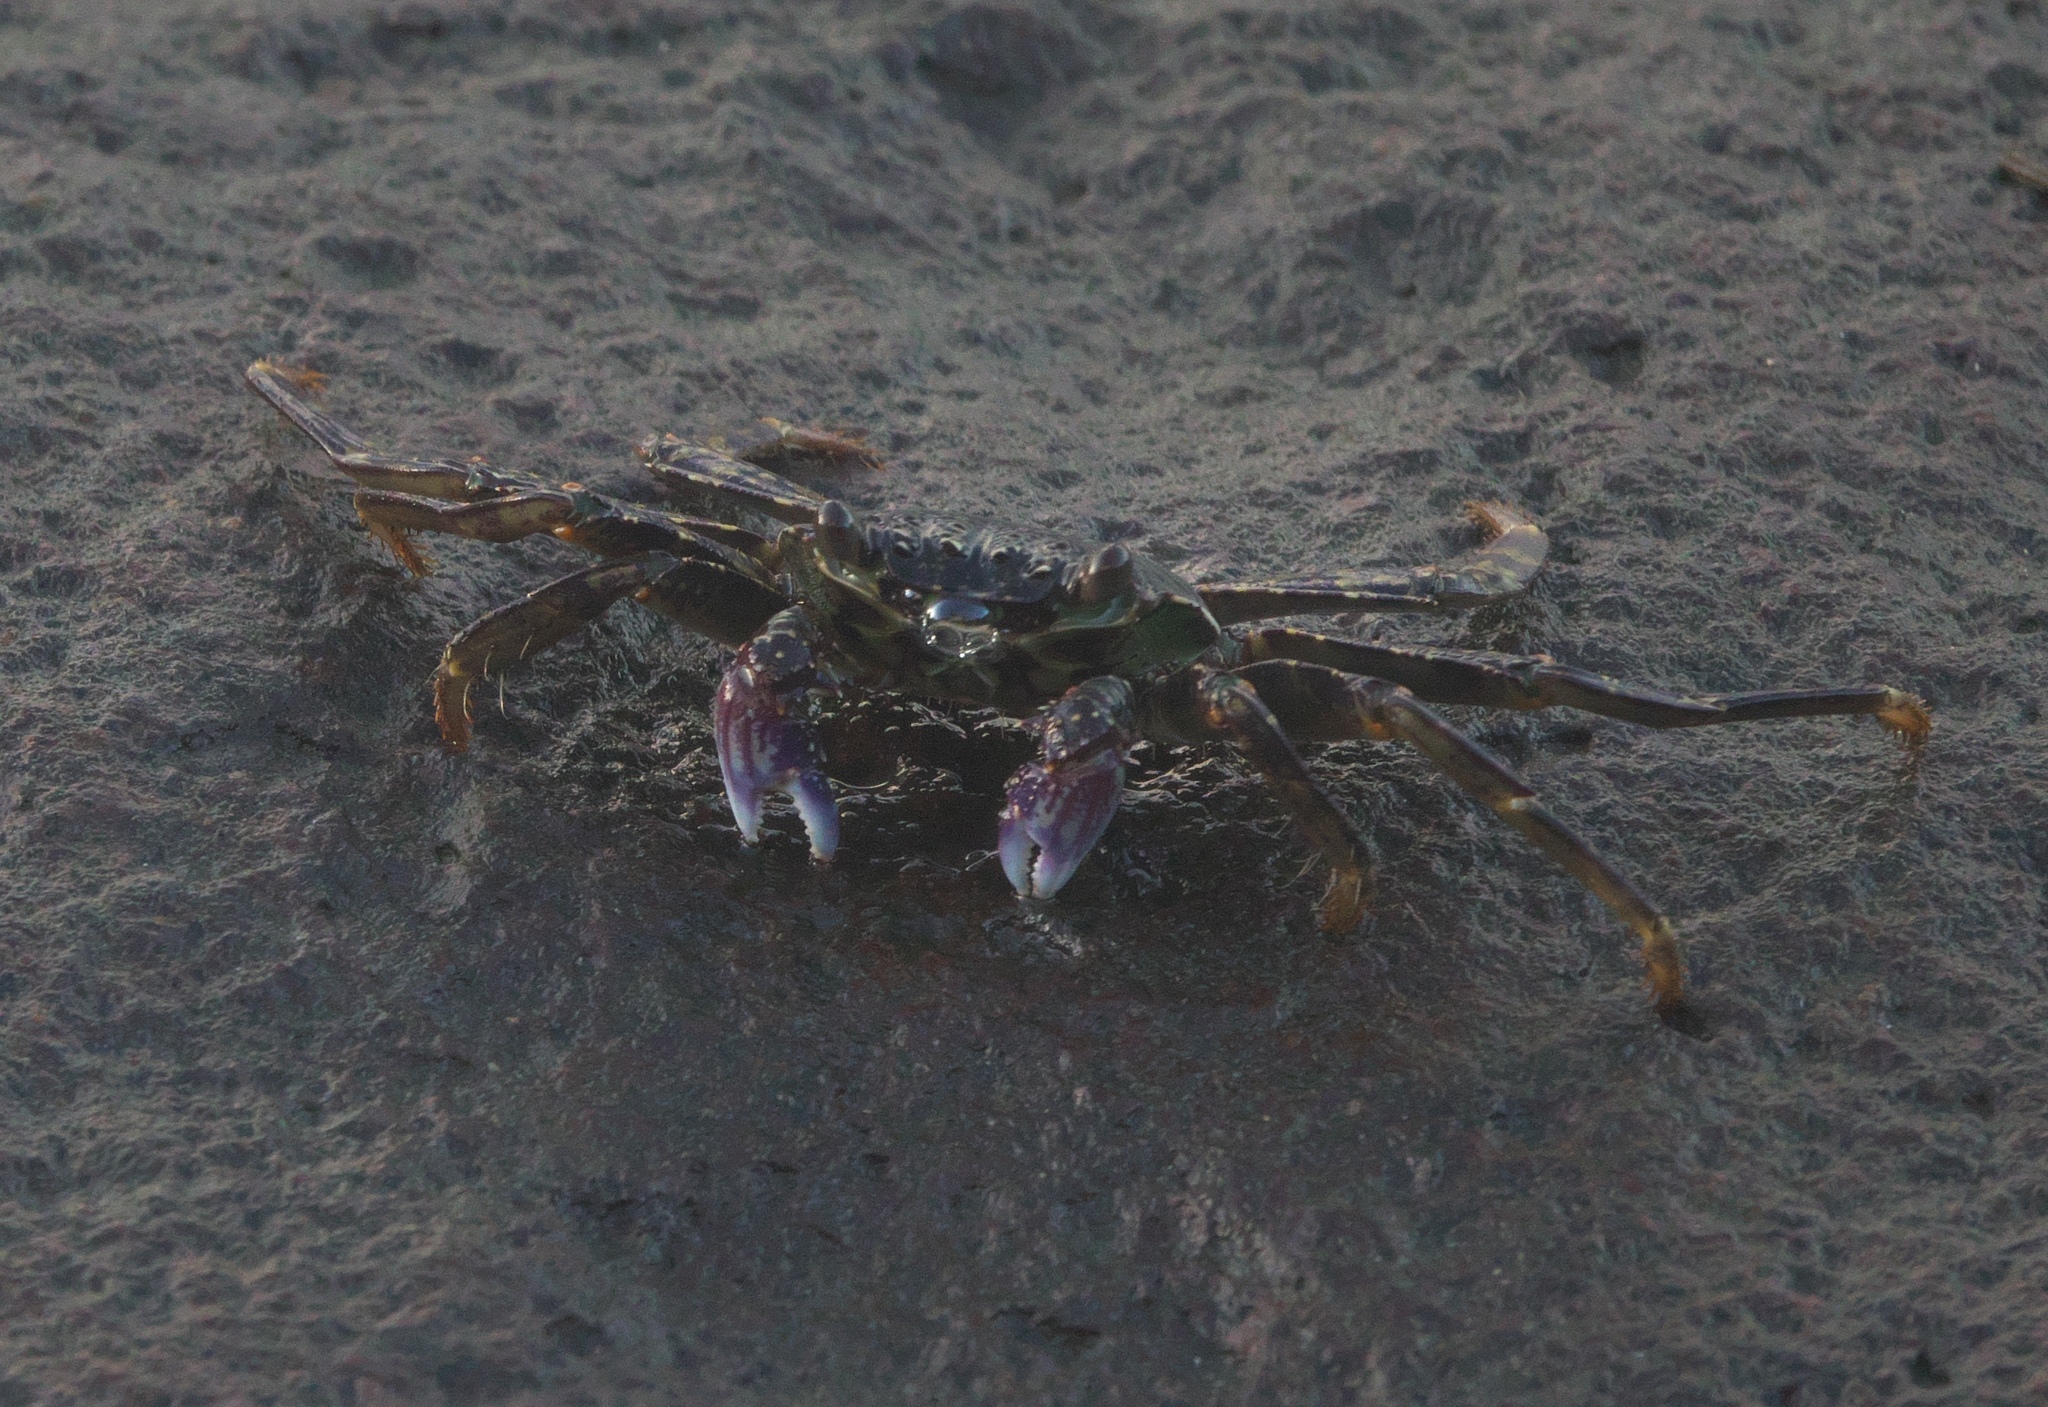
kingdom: Animalia
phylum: Arthropoda
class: Malacostraca
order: Decapoda
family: Grapsidae
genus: Grapsus
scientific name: Grapsus albolineatus
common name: Mottled lightfoot crab
